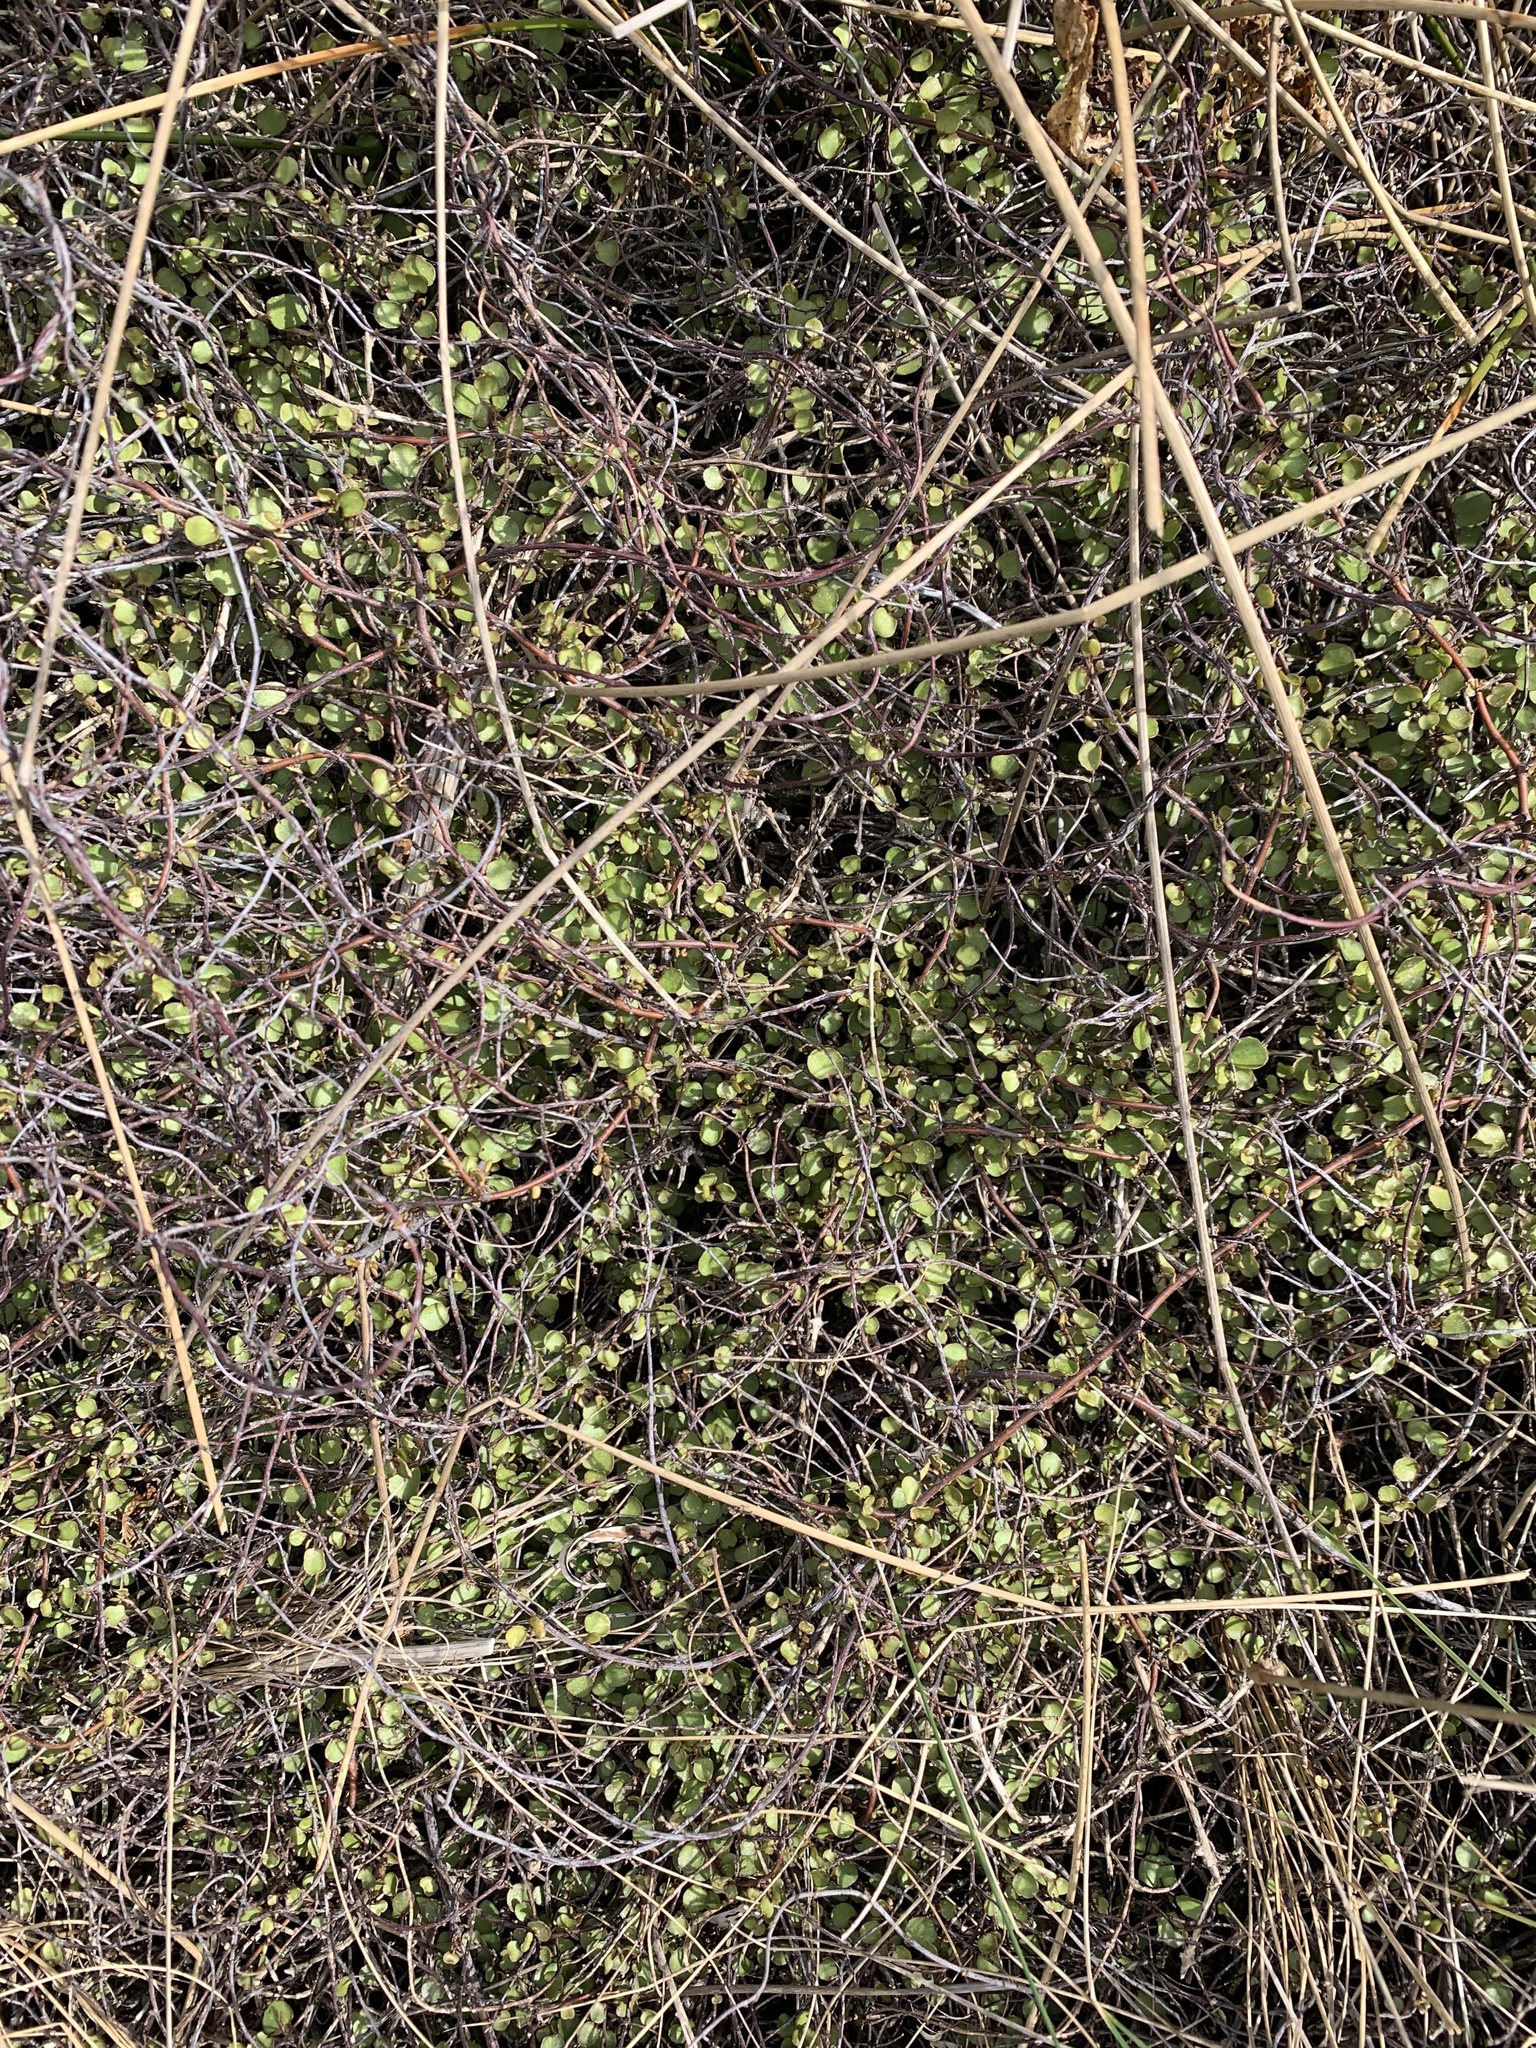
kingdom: Plantae
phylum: Tracheophyta
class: Magnoliopsida
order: Caryophyllales
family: Polygonaceae
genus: Muehlenbeckia
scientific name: Muehlenbeckia complexa
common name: Wireplant
